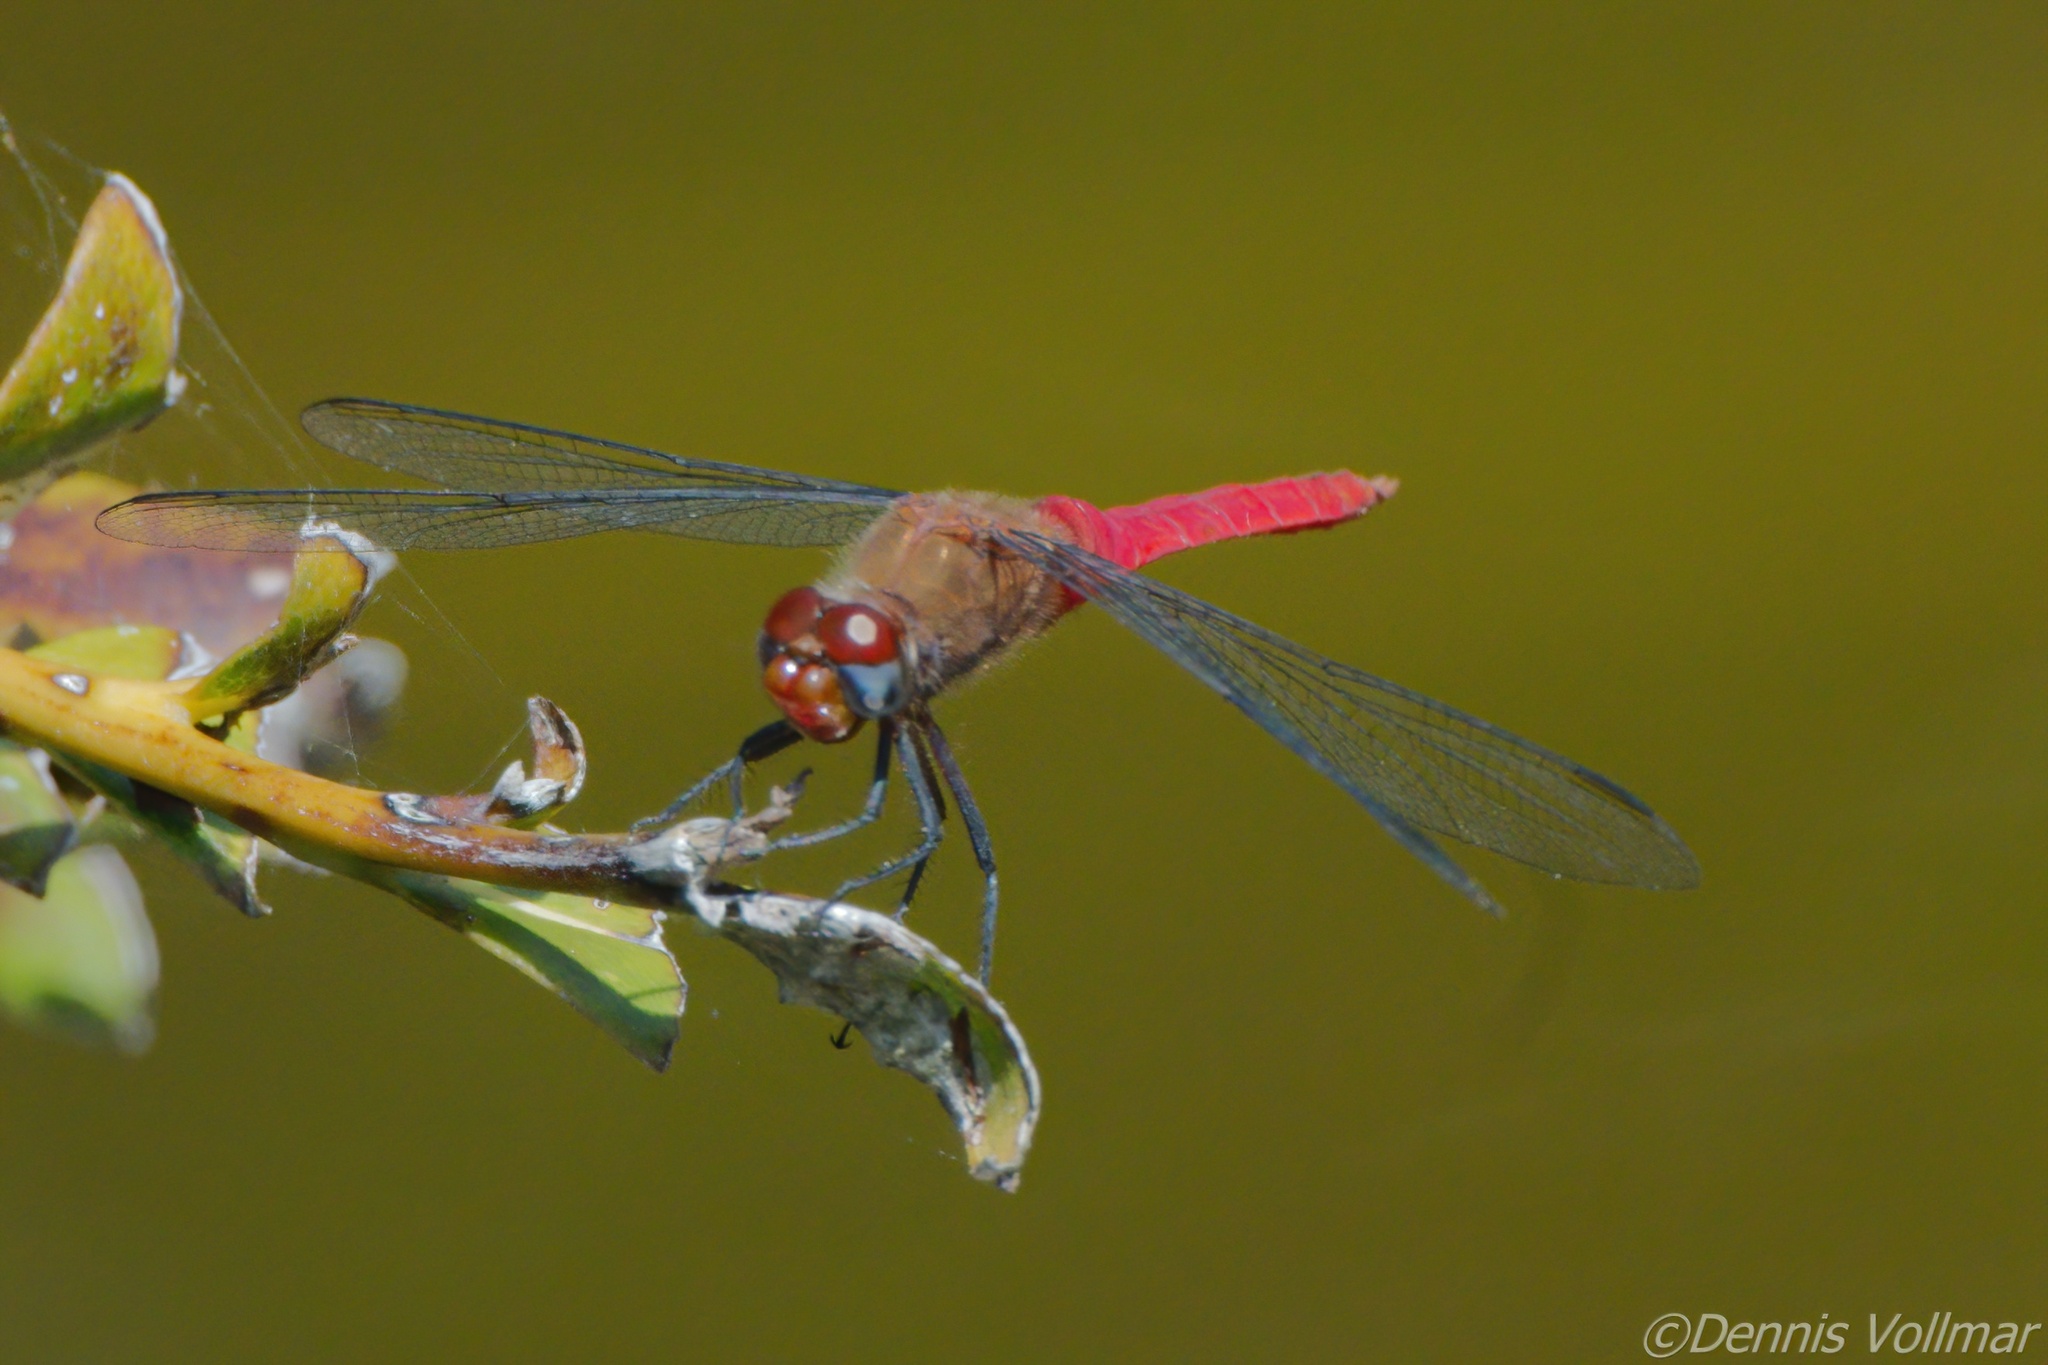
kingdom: Animalia
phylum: Arthropoda
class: Insecta
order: Odonata
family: Libellulidae
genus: Brachymesia
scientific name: Brachymesia furcata
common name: Red-taled pennant
